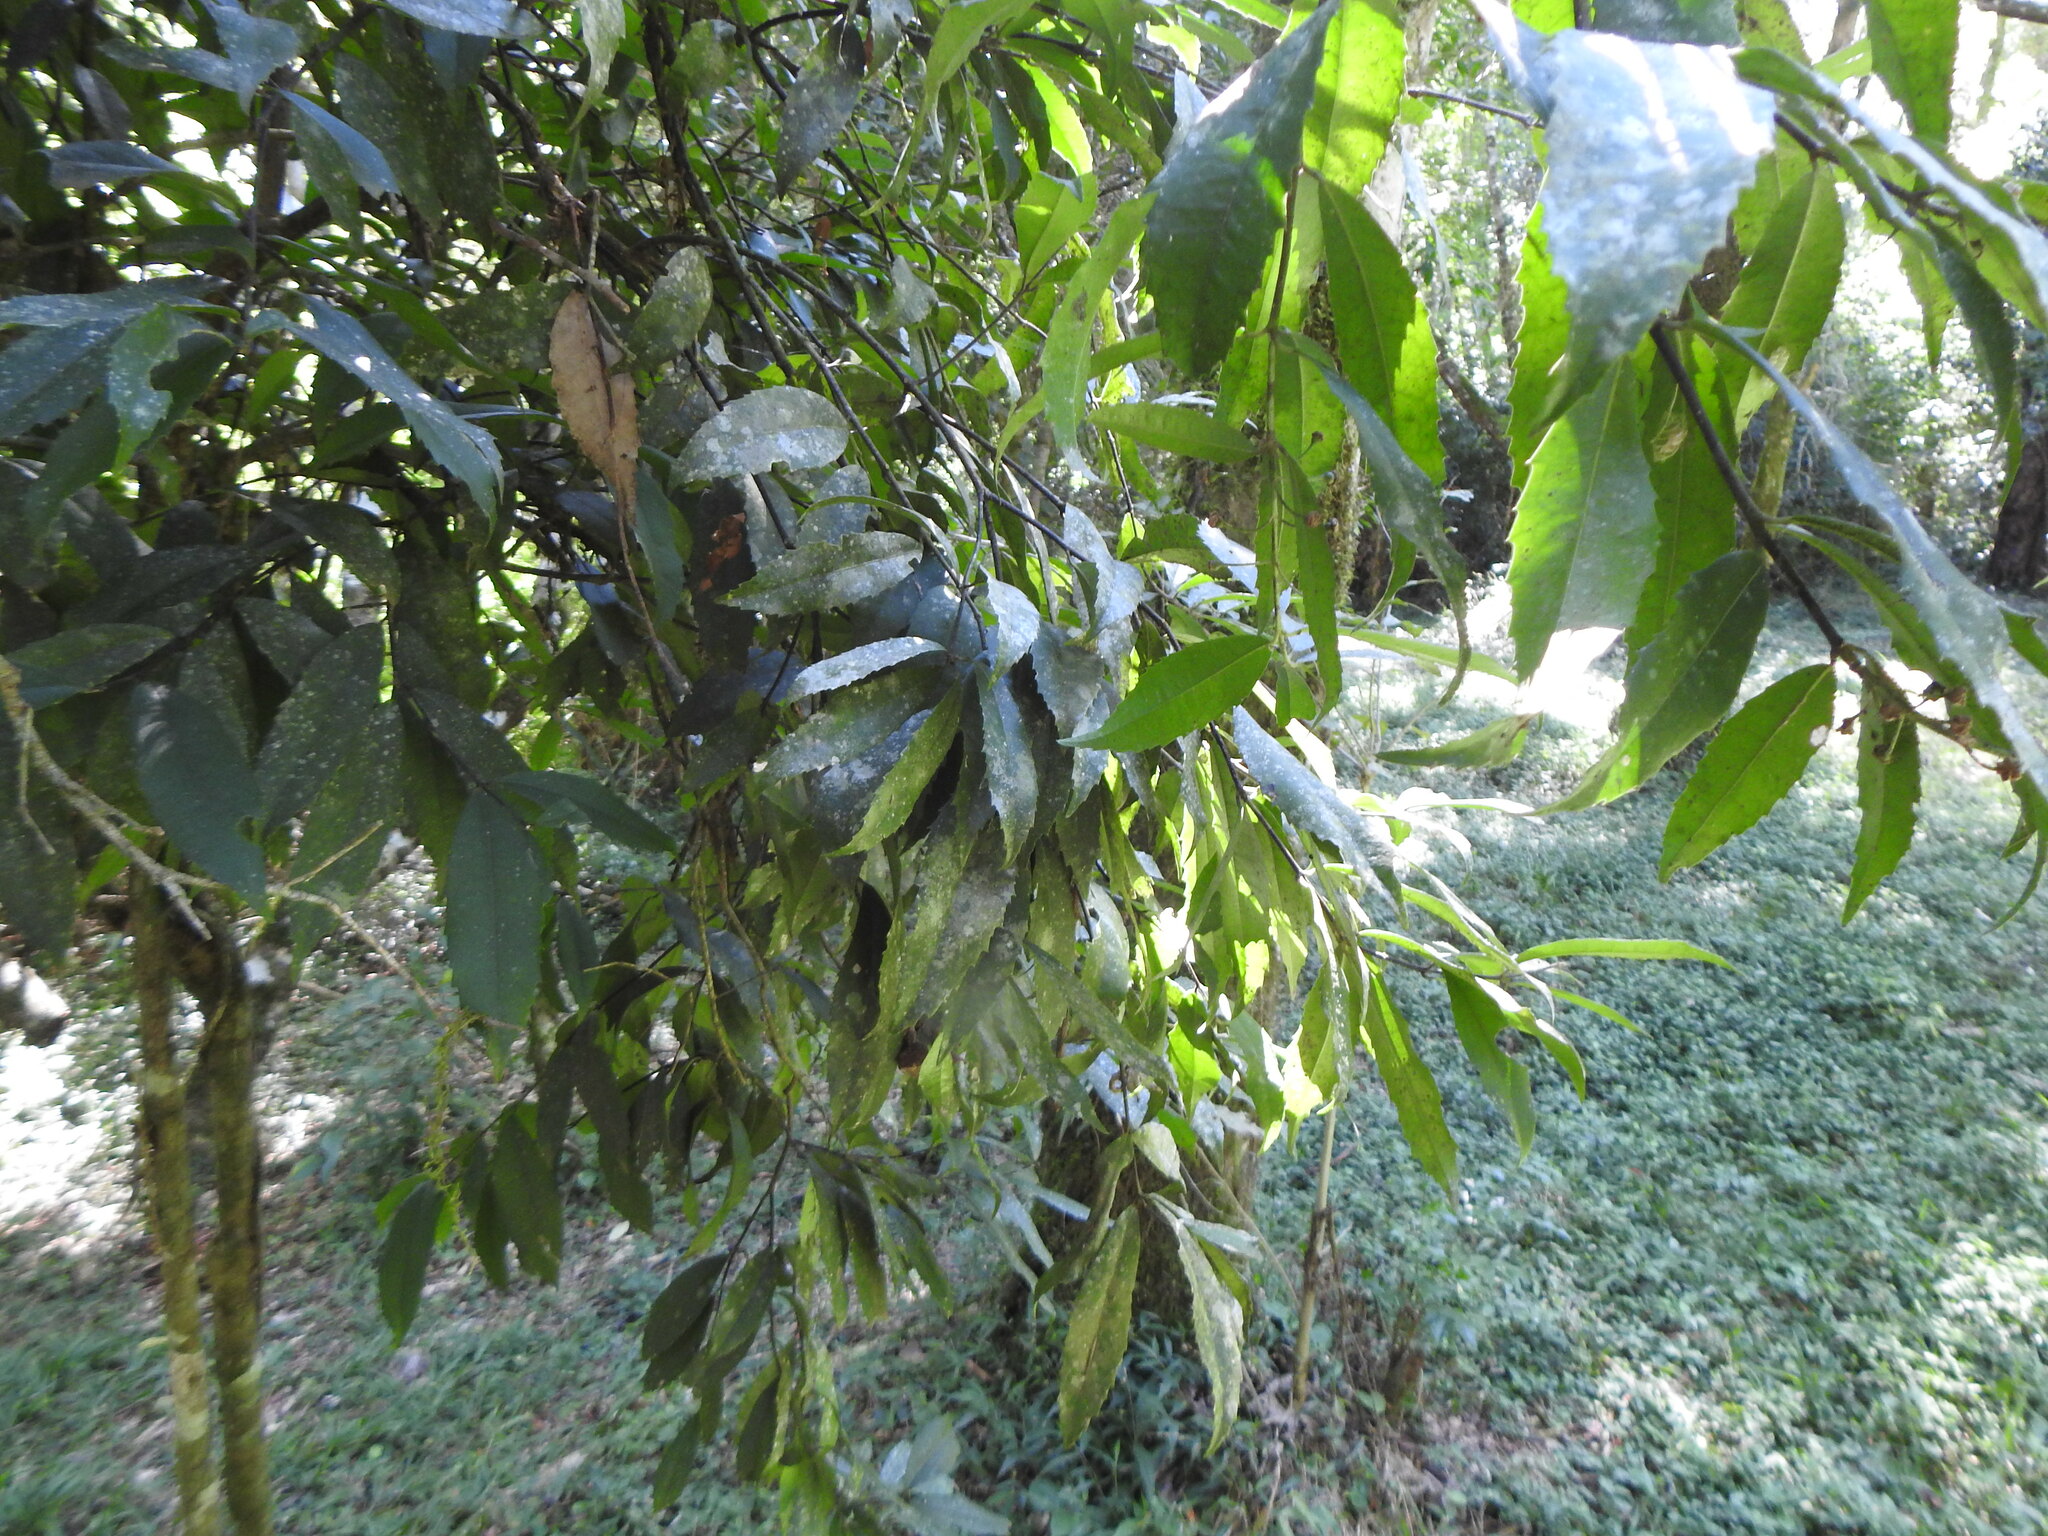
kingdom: Plantae
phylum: Tracheophyta
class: Magnoliopsida
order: Laurales
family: Monimiaceae
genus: Hennecartia
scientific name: Hennecartia omphalandra
